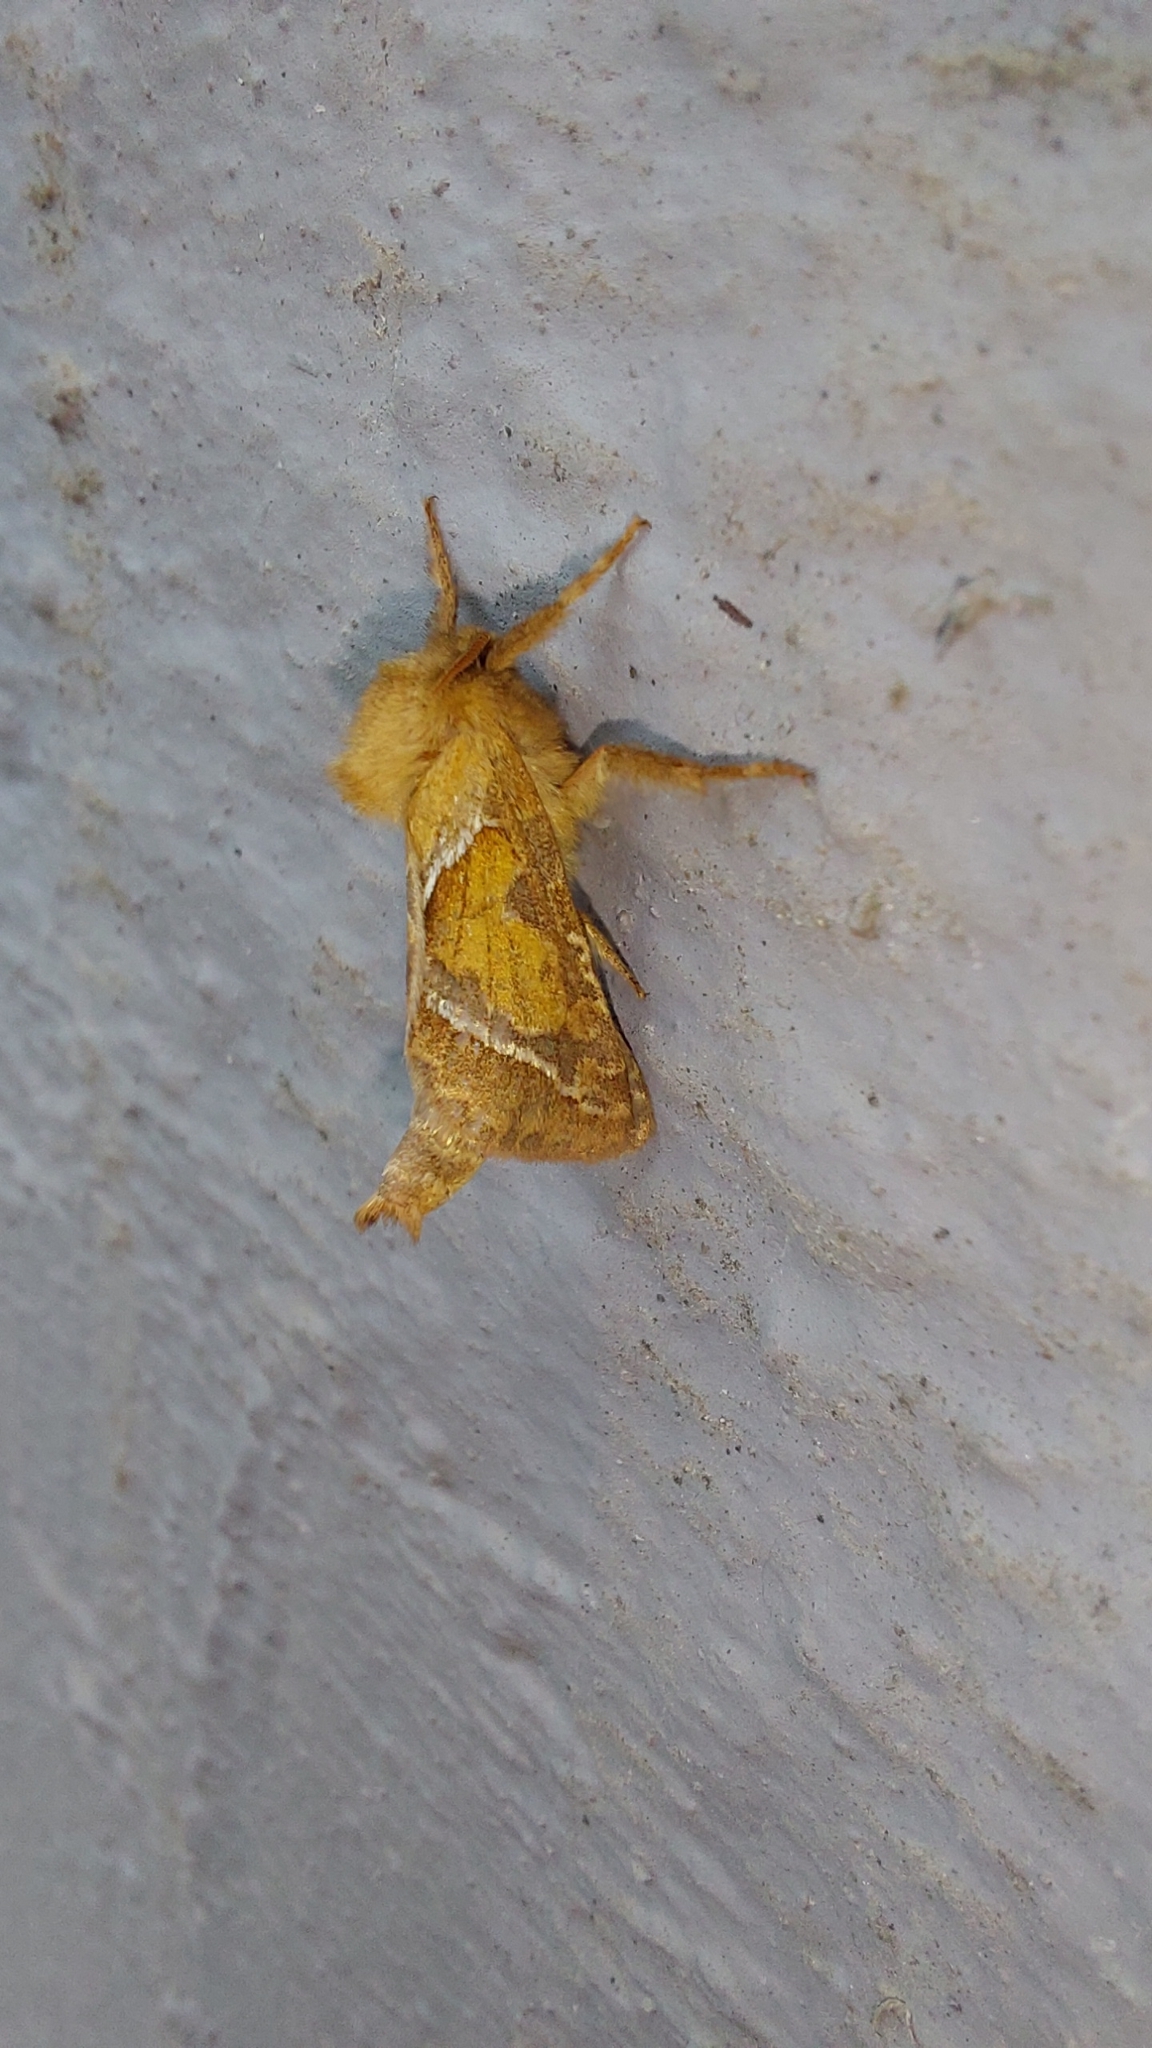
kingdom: Animalia
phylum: Arthropoda
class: Insecta
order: Lepidoptera
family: Hepialidae
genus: Triodia
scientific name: Triodia sylvina
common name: Orange swift
